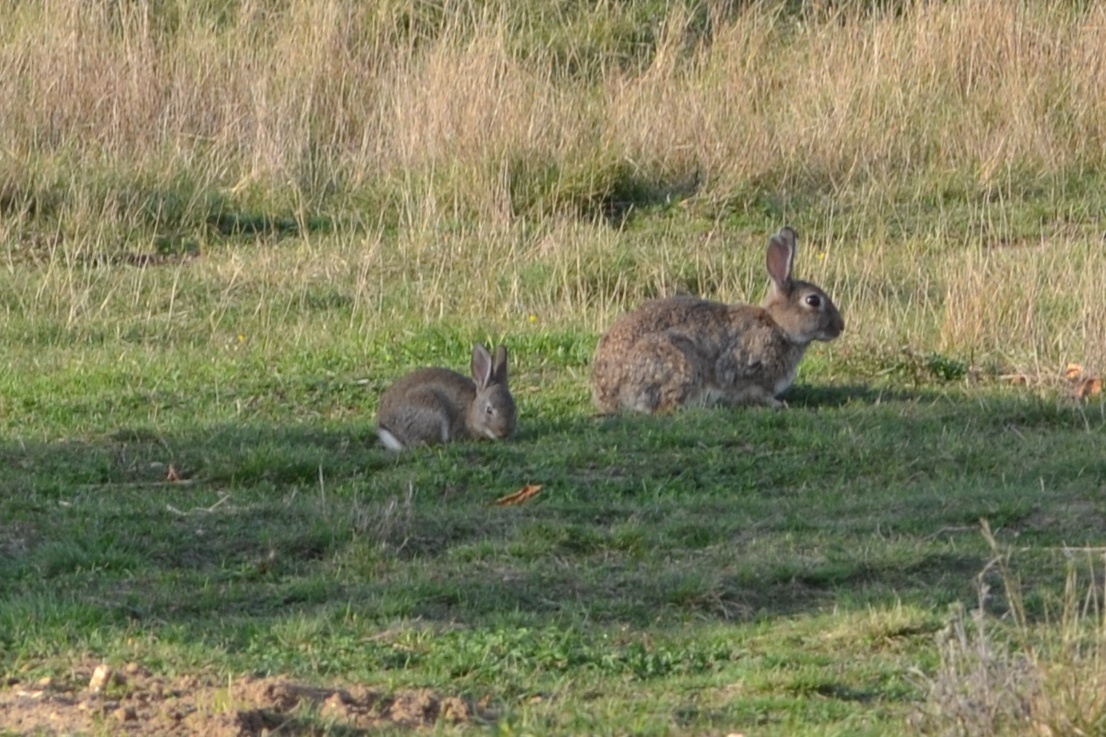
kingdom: Animalia
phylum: Chordata
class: Mammalia
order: Lagomorpha
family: Leporidae
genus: Oryctolagus
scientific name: Oryctolagus cuniculus
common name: European rabbit
